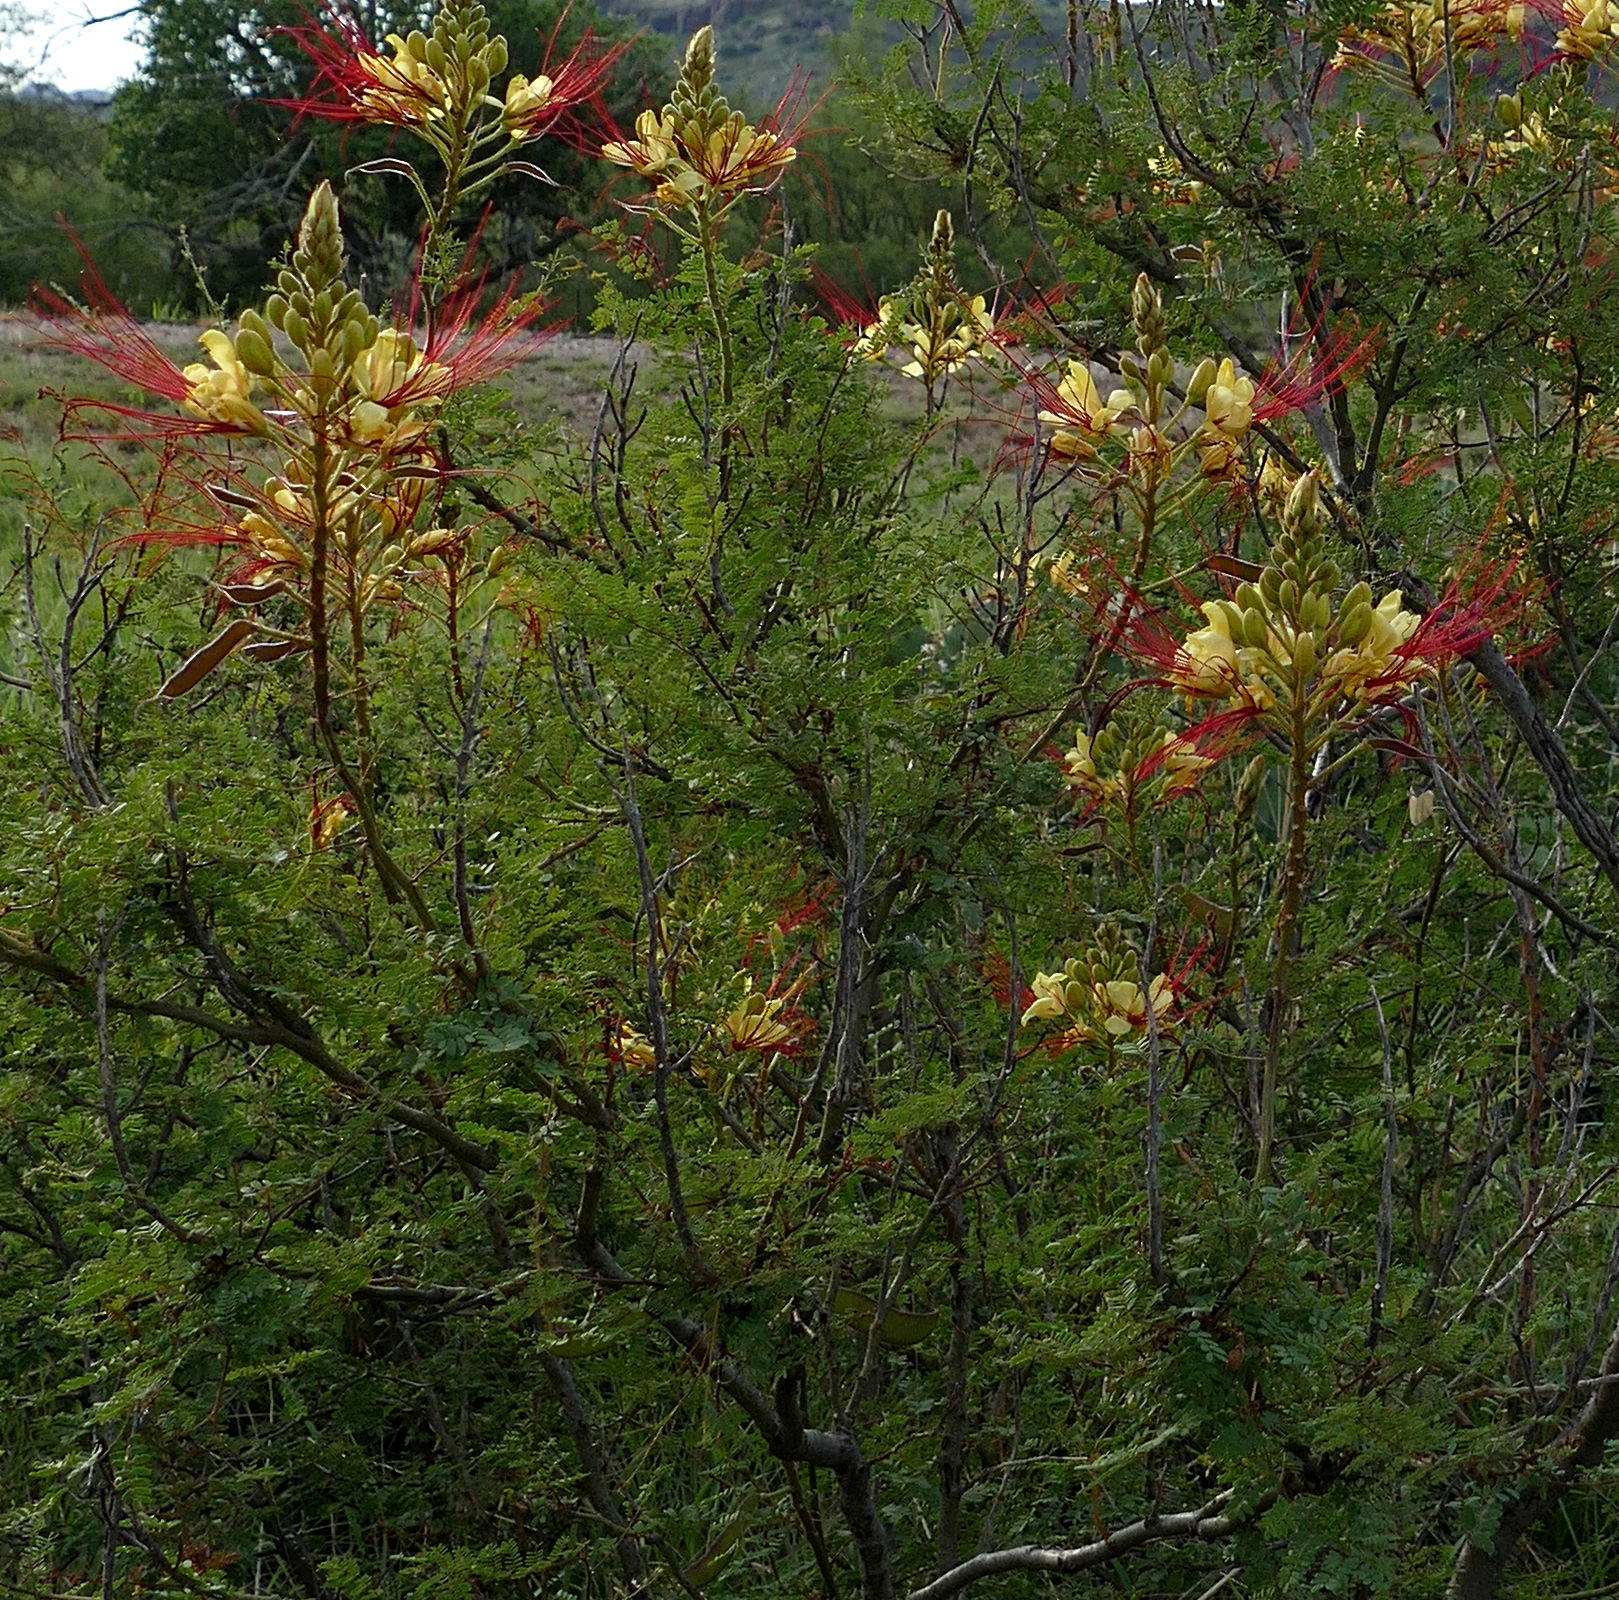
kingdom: Plantae
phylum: Tracheophyta
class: Magnoliopsida
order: Fabales
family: Fabaceae
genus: Erythrostemon
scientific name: Erythrostemon gilliesii
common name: Bird-of-paradise shrub
